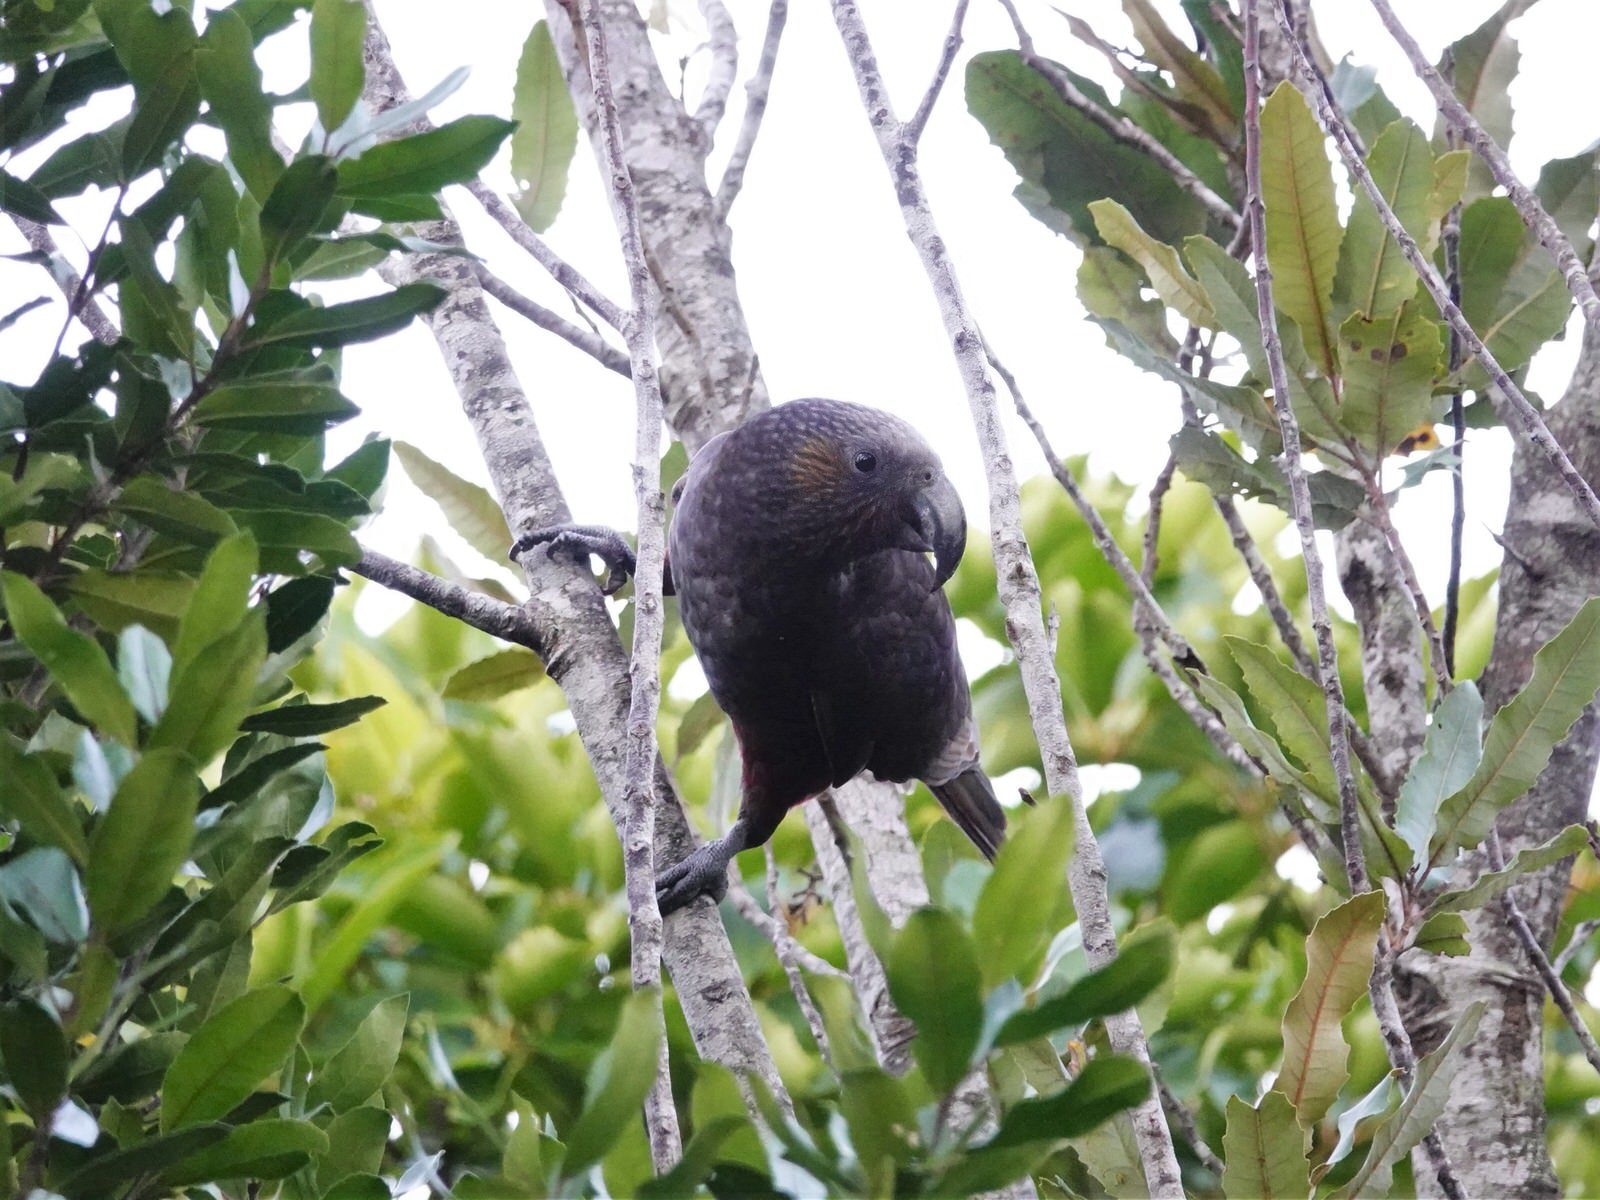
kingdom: Animalia
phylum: Chordata
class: Aves
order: Psittaciformes
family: Psittacidae
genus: Nestor
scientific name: Nestor meridionalis
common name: New zealand kaka
